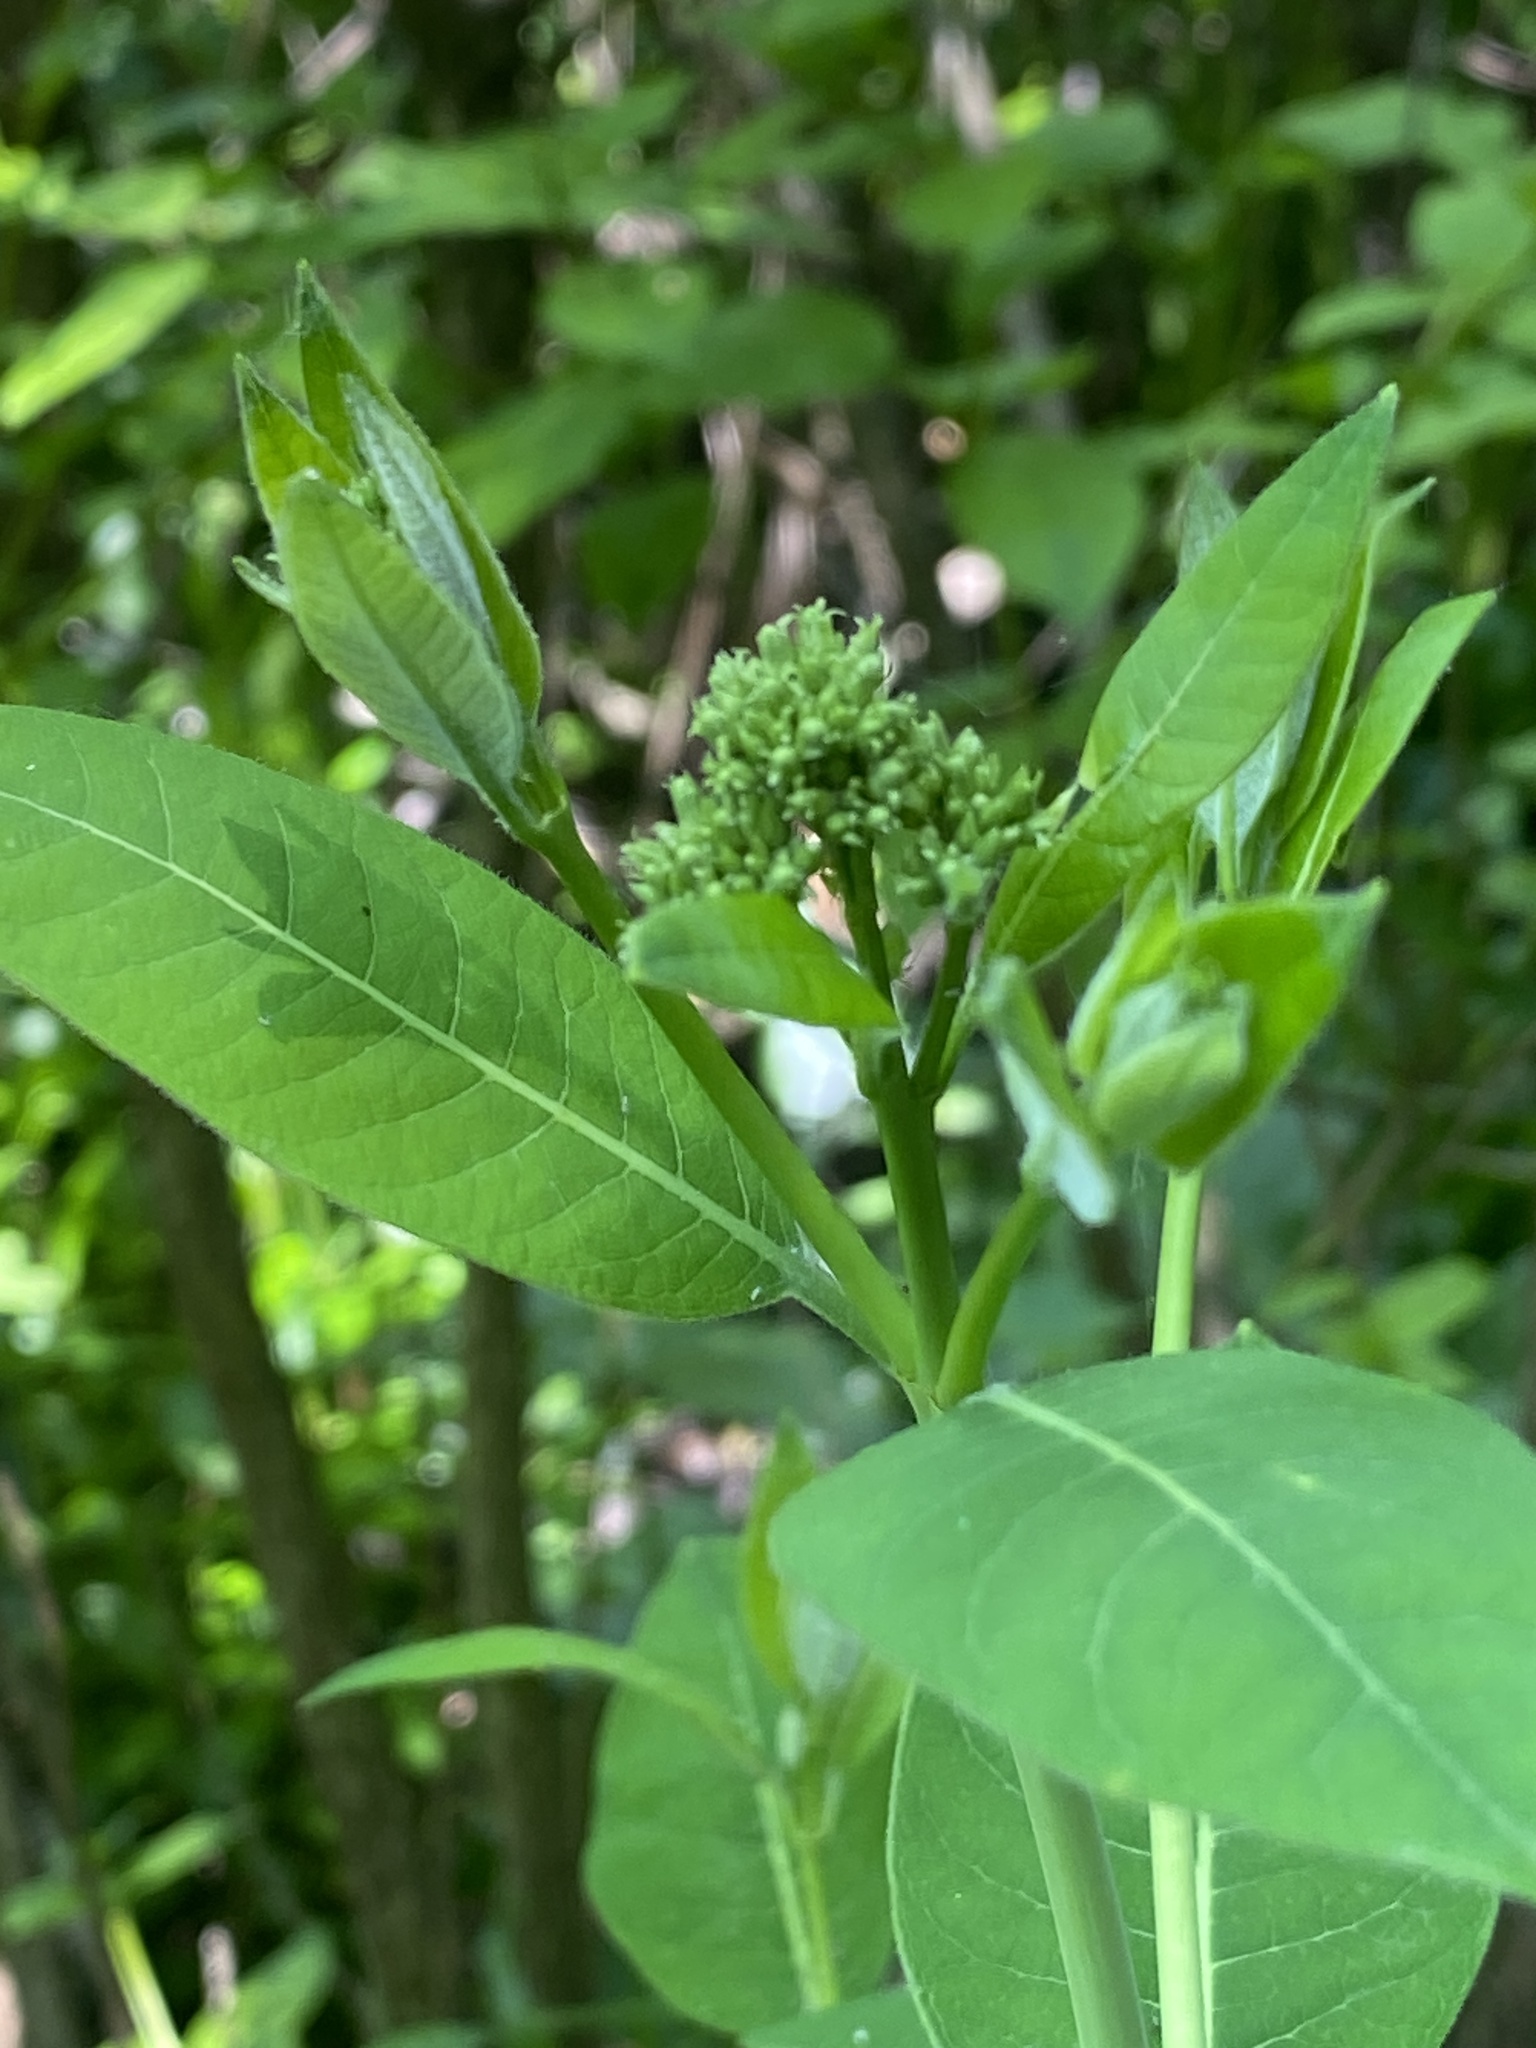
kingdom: Plantae
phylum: Tracheophyta
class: Magnoliopsida
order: Gentianales
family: Apocynaceae
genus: Apocynum
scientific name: Apocynum cannabinum
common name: Hemp dogbane
